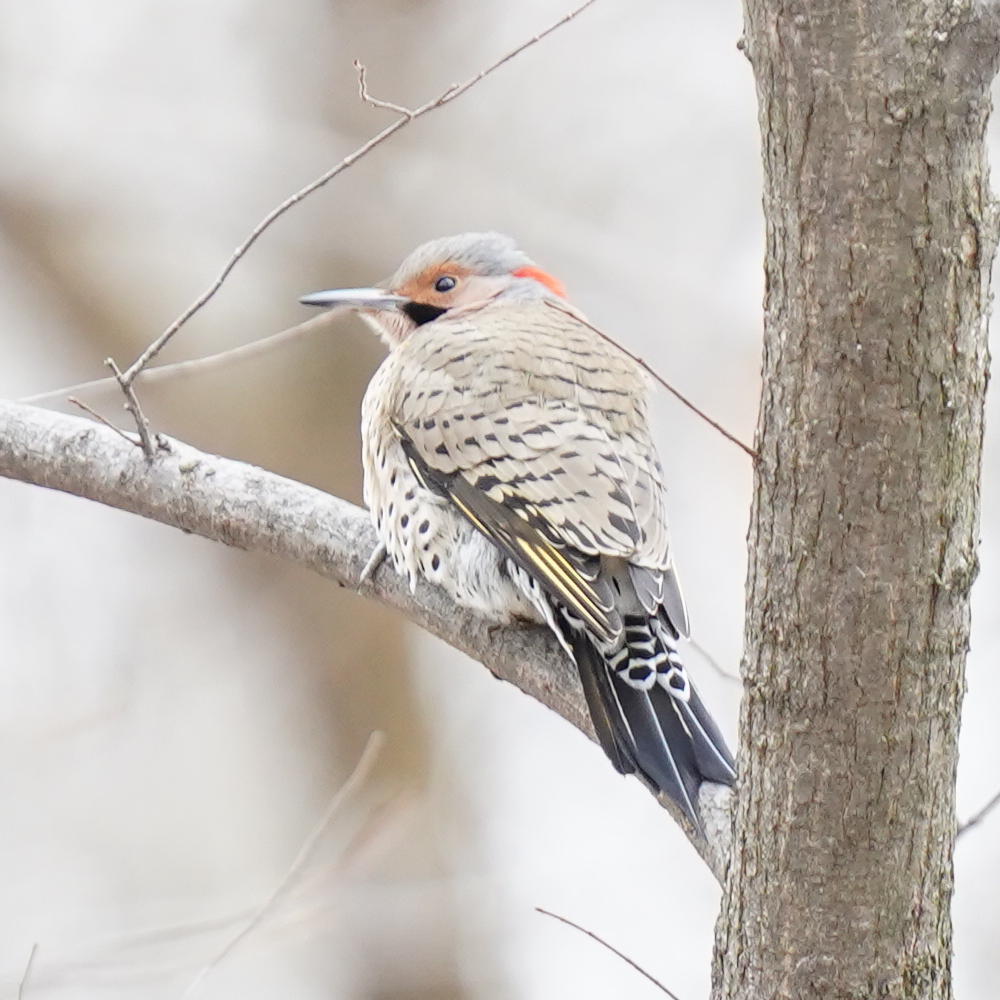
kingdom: Animalia
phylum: Chordata
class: Aves
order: Piciformes
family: Picidae
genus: Colaptes
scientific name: Colaptes auratus
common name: Northern flicker
